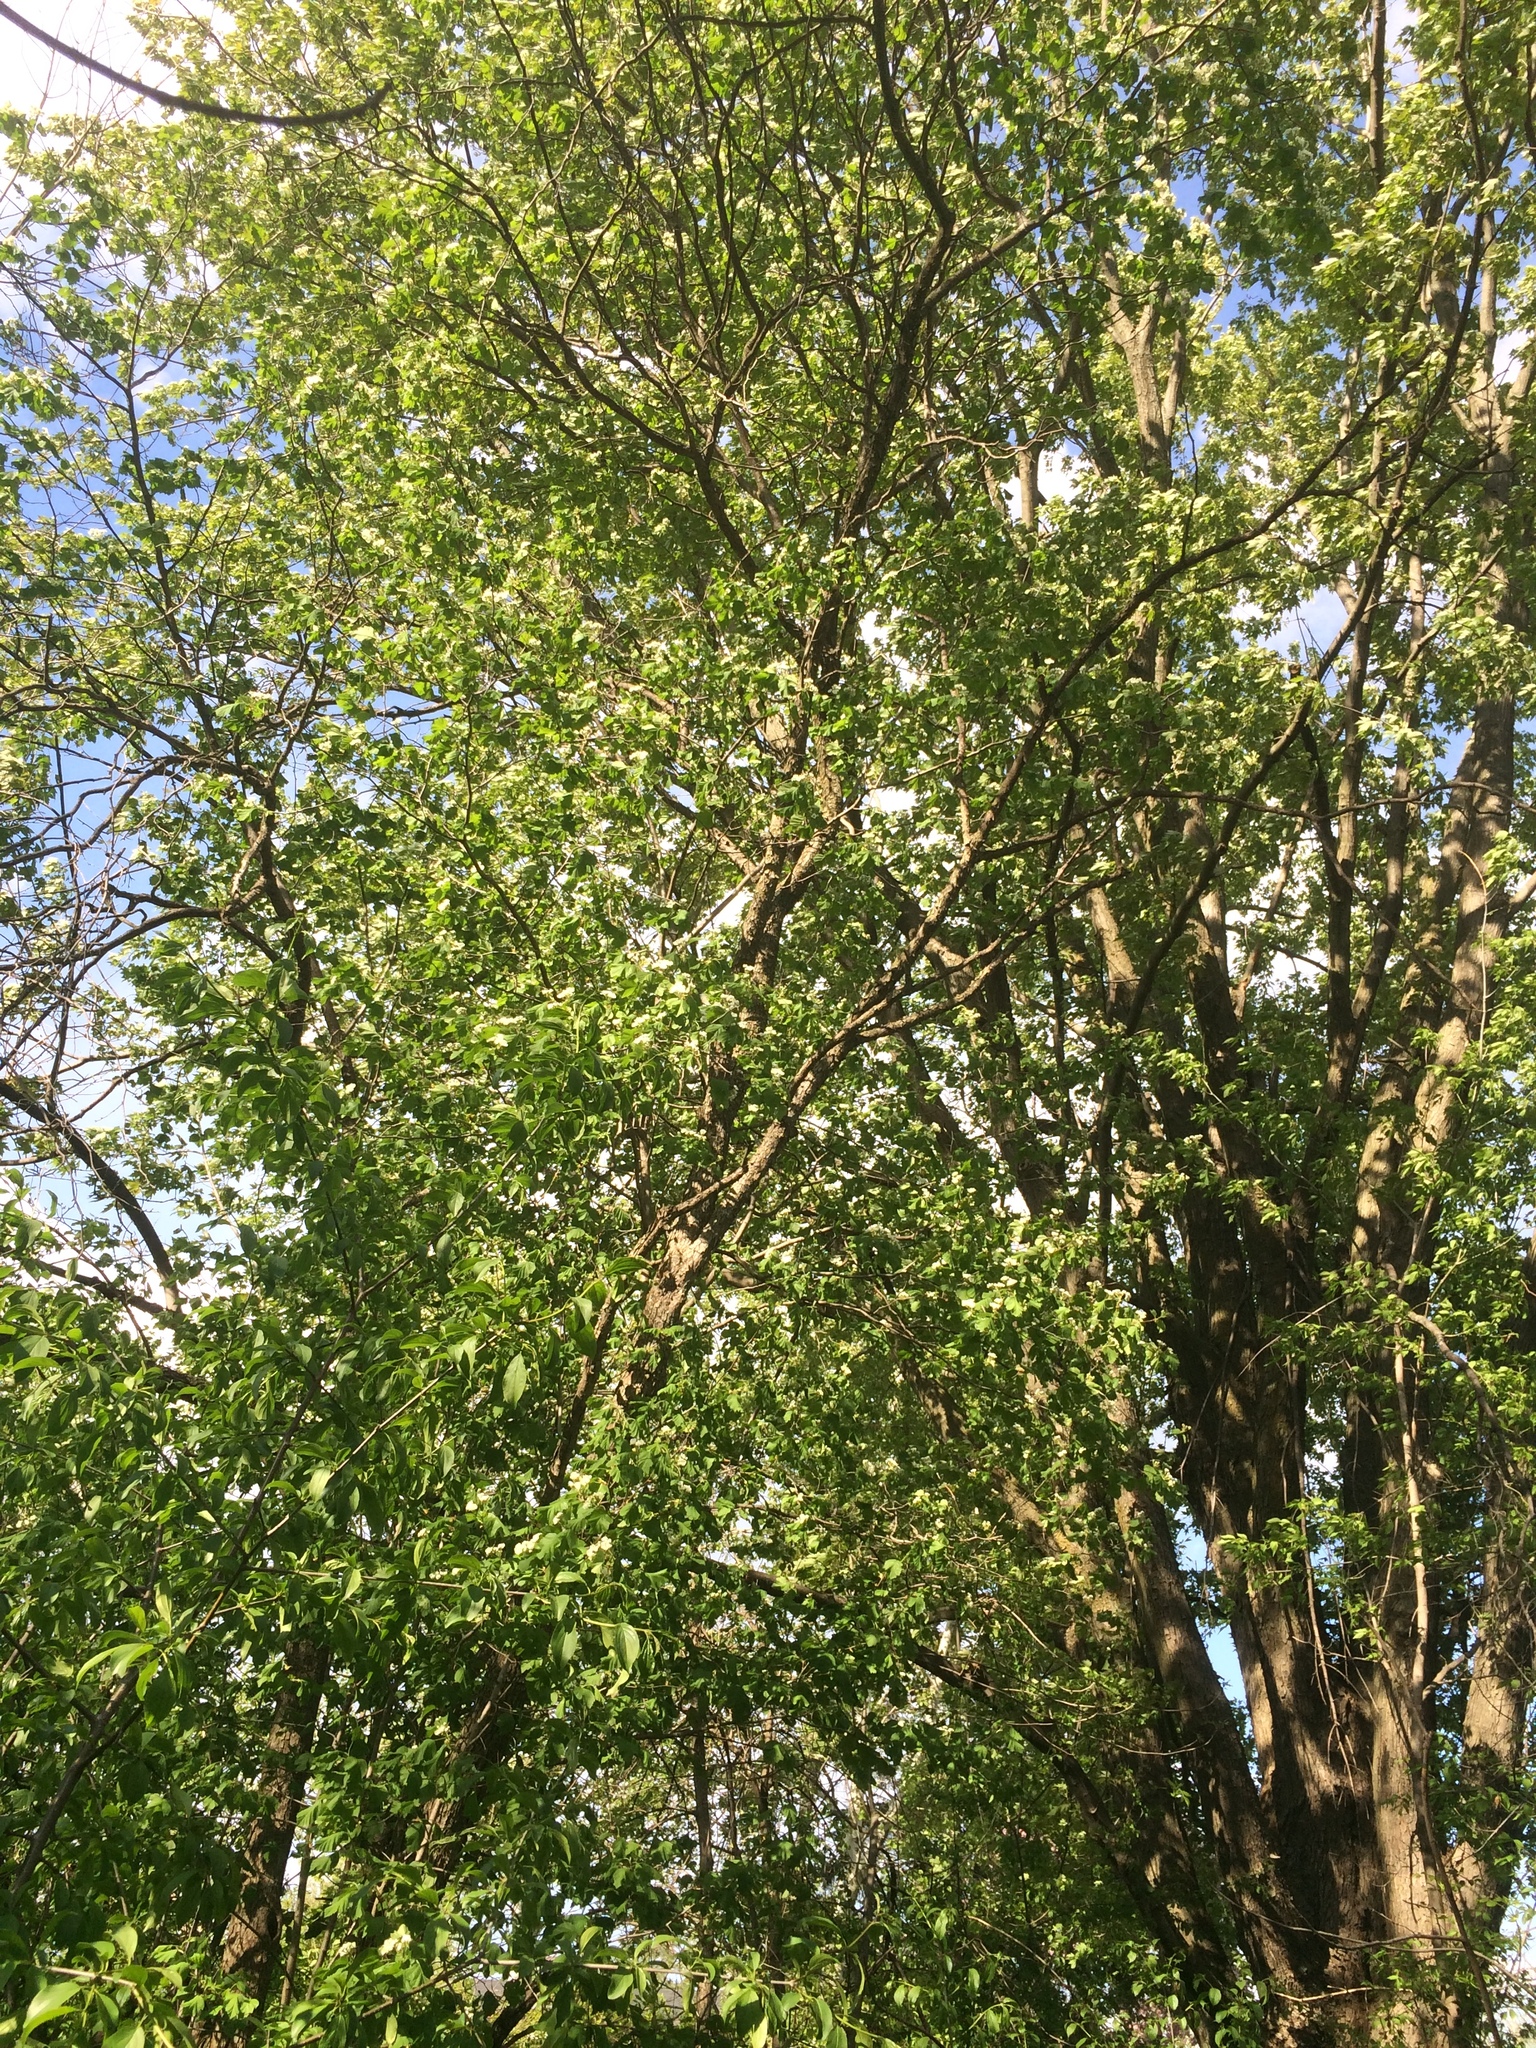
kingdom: Plantae
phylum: Tracheophyta
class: Magnoliopsida
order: Rosales
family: Rosaceae
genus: Crataegus
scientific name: Crataegus submollis
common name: Hairy cockspurthorn
